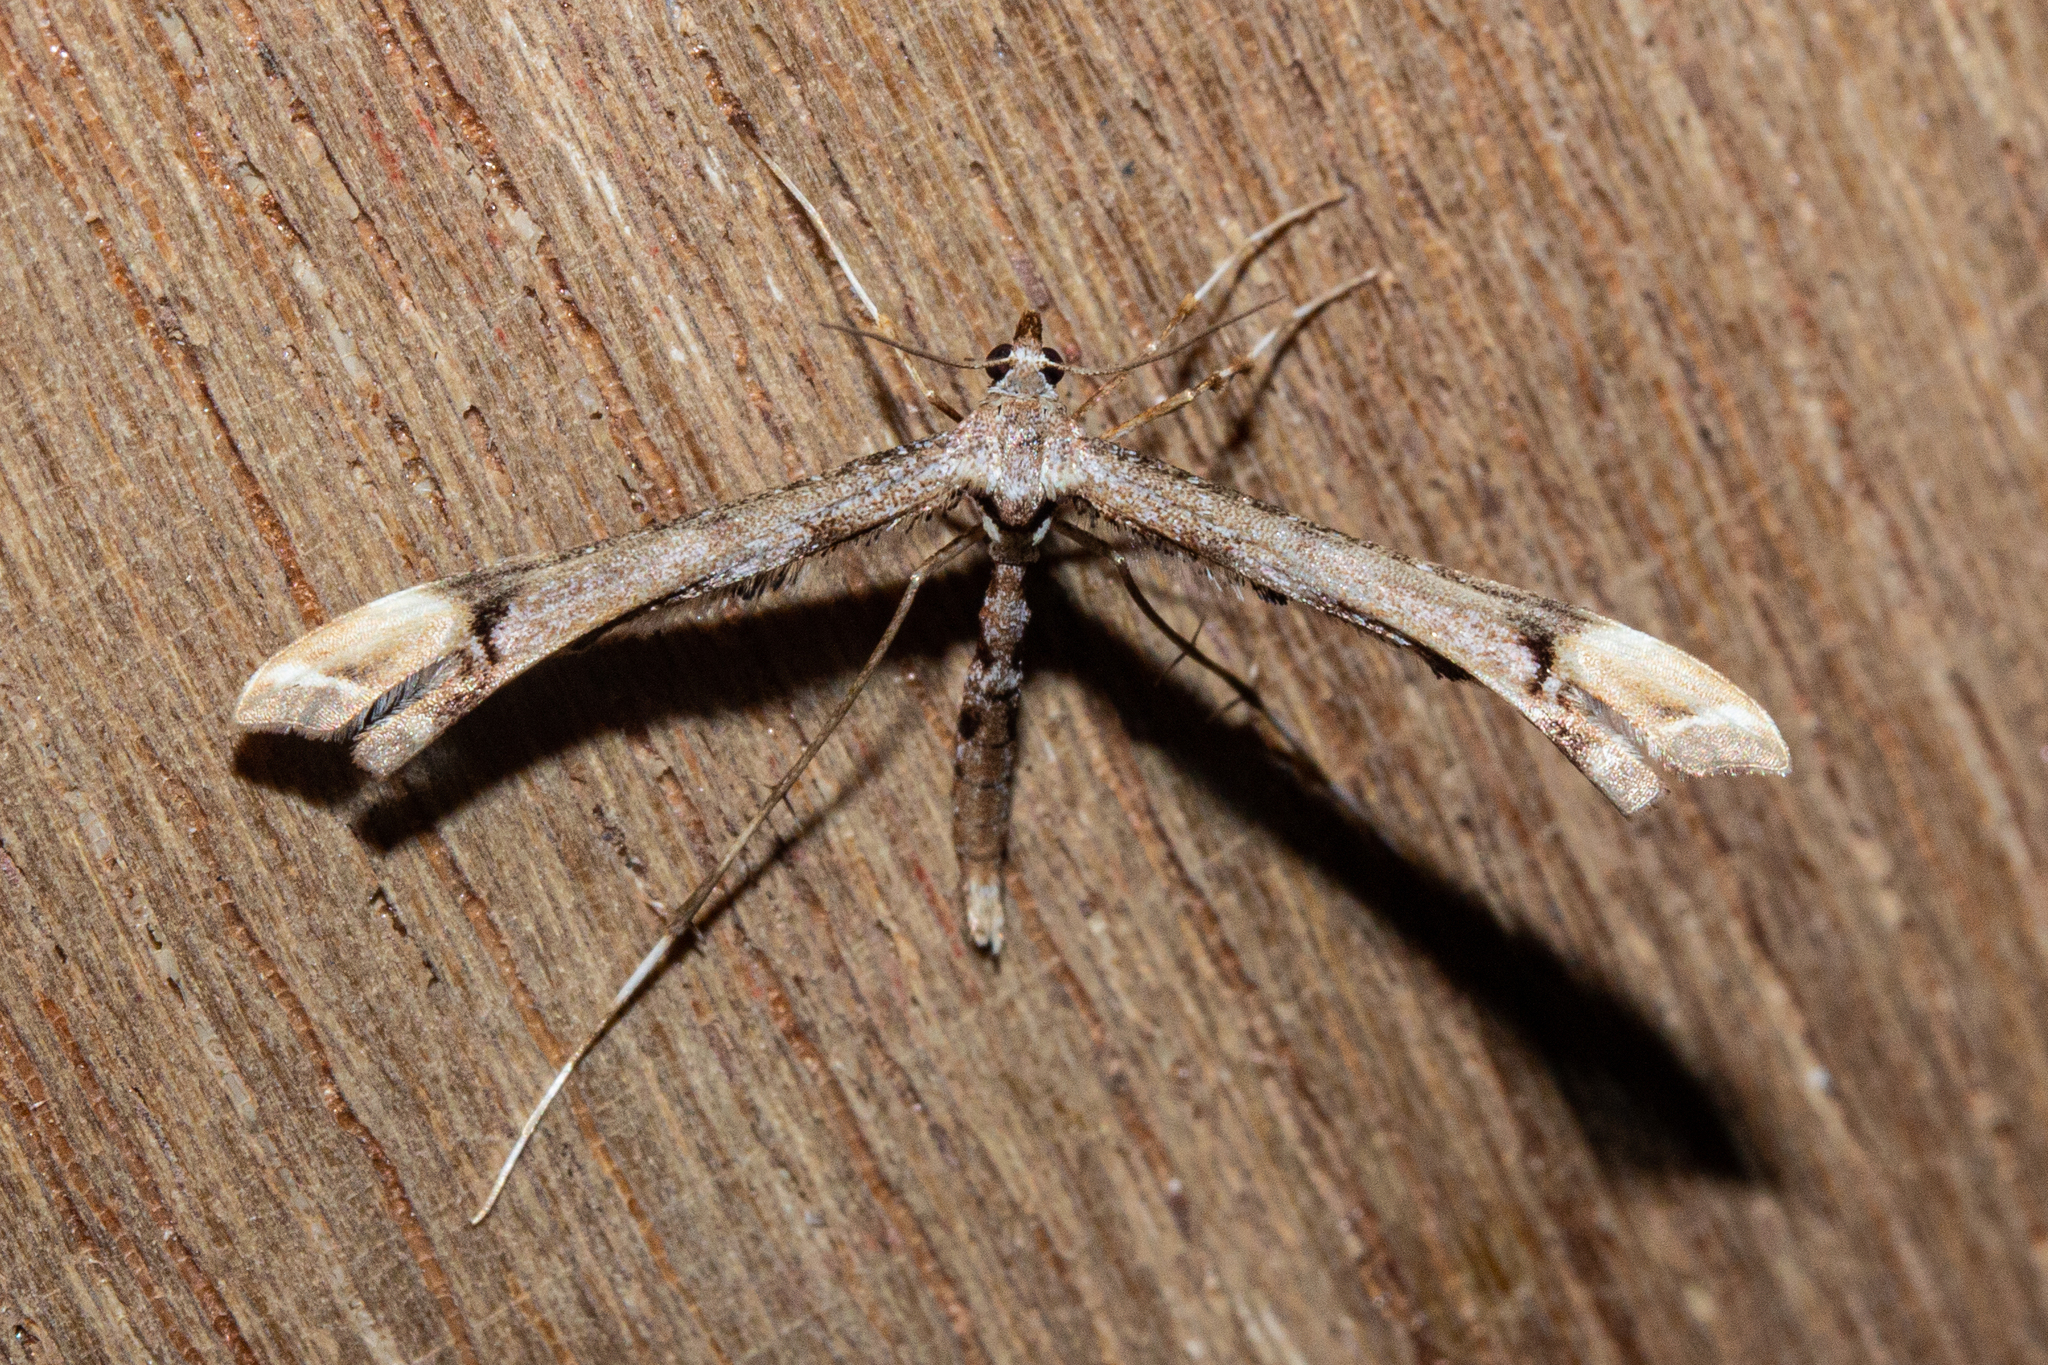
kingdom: Animalia
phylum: Arthropoda
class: Insecta
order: Lepidoptera
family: Pterophoridae
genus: Amblyptilia
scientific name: Amblyptilia falcatalis
